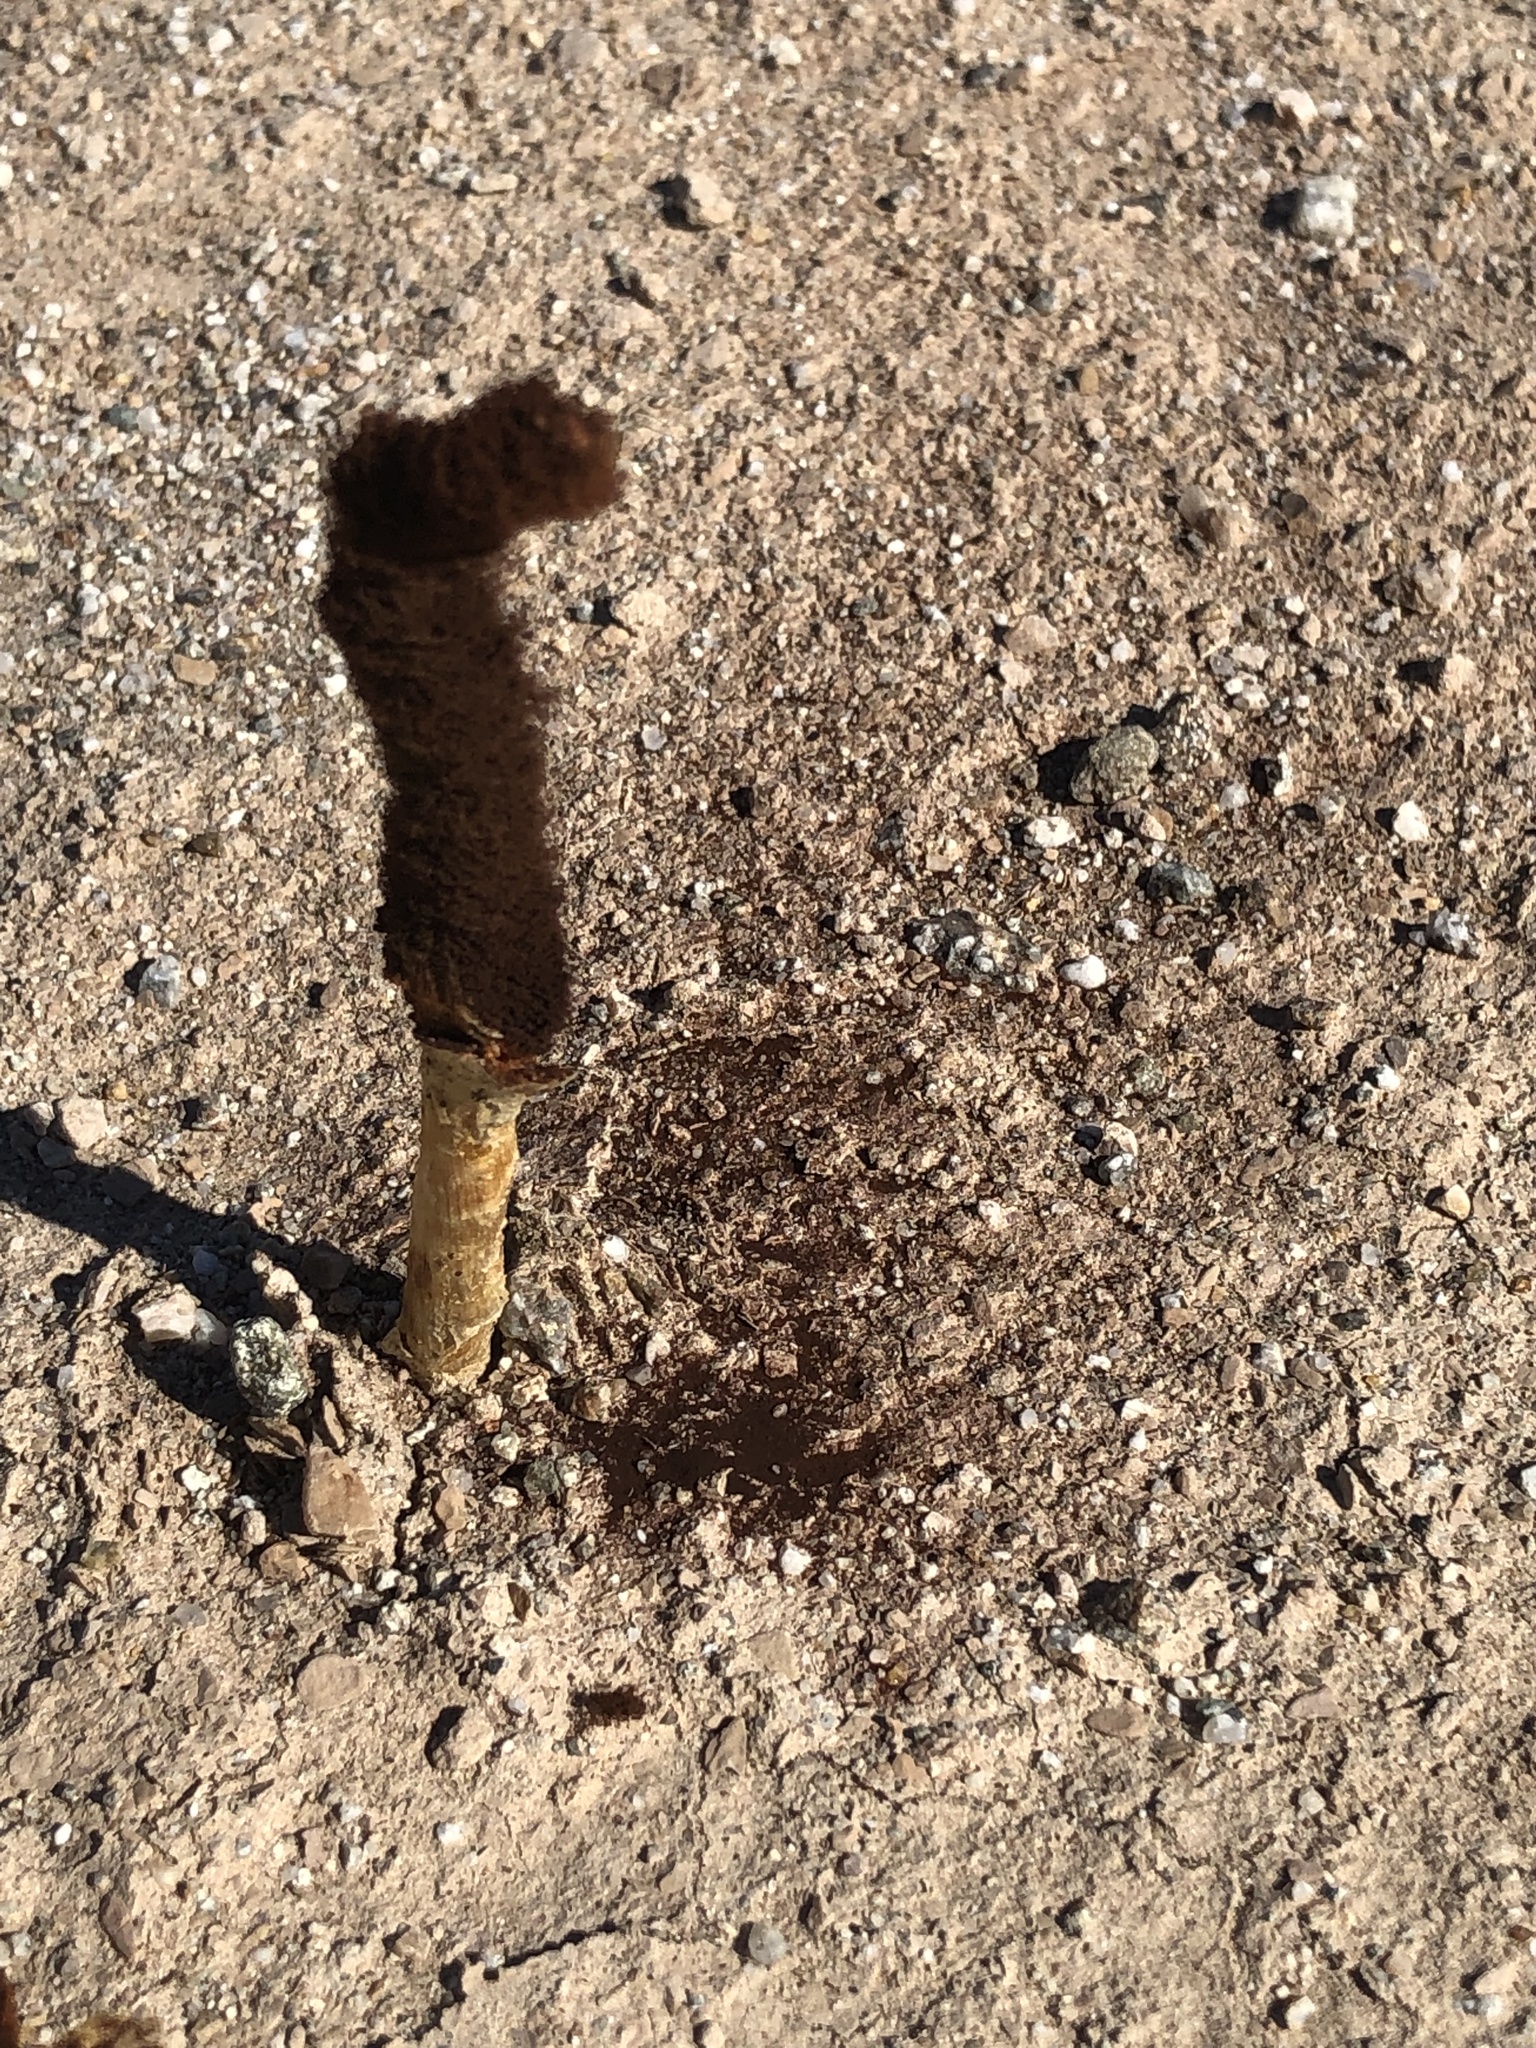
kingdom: Fungi
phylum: Basidiomycota
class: Agaricomycetes
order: Agaricales
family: Agaricaceae
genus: Podaxis
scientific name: Podaxis pistillaris
